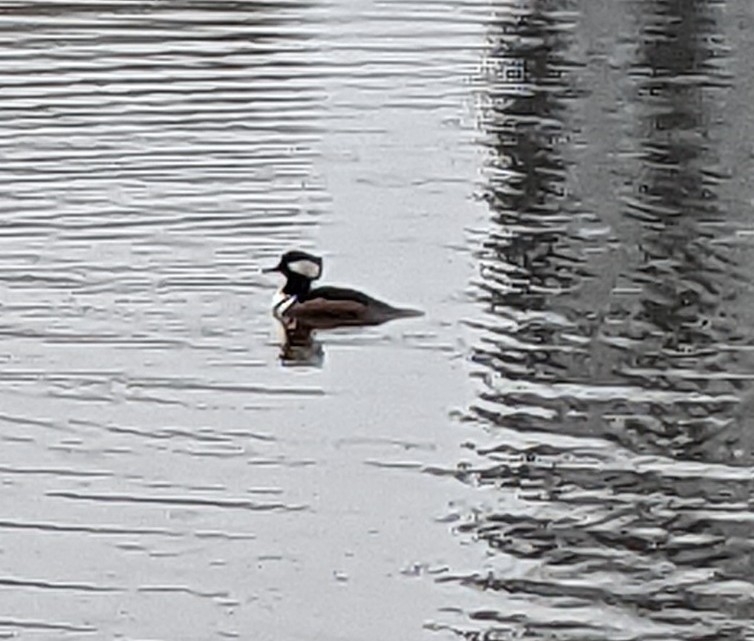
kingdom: Animalia
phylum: Chordata
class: Aves
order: Anseriformes
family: Anatidae
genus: Lophodytes
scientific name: Lophodytes cucullatus
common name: Hooded merganser
